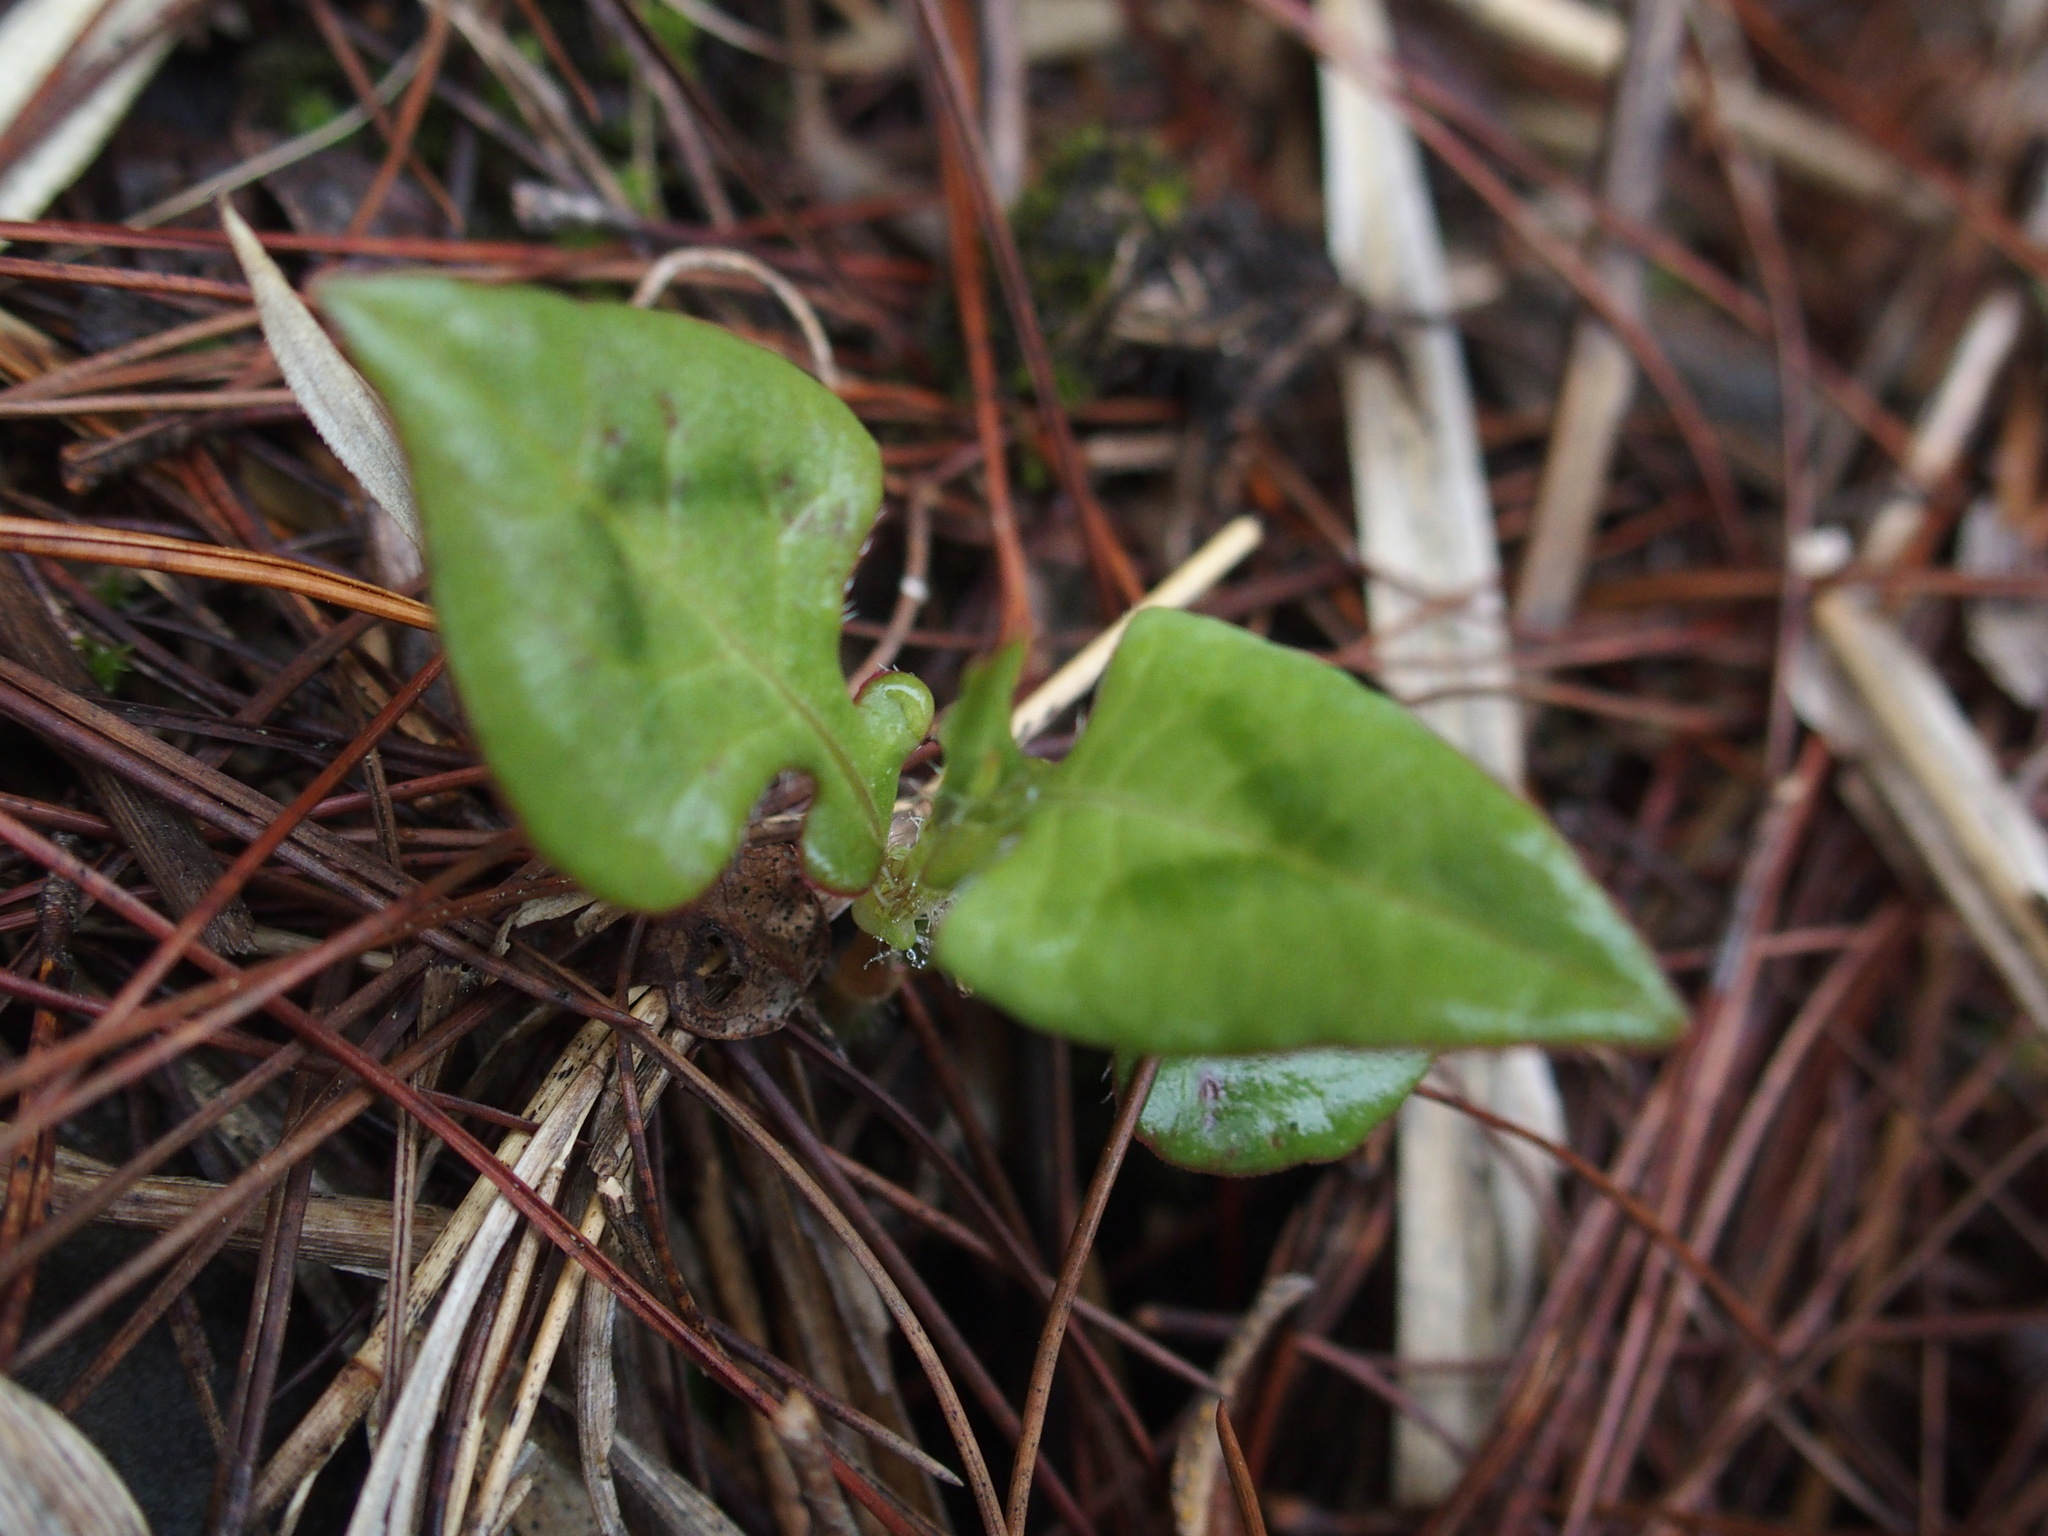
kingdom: Plantae
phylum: Tracheophyta
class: Magnoliopsida
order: Caryophyllales
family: Polygonaceae
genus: Persicaria
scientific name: Persicaria runcinata
